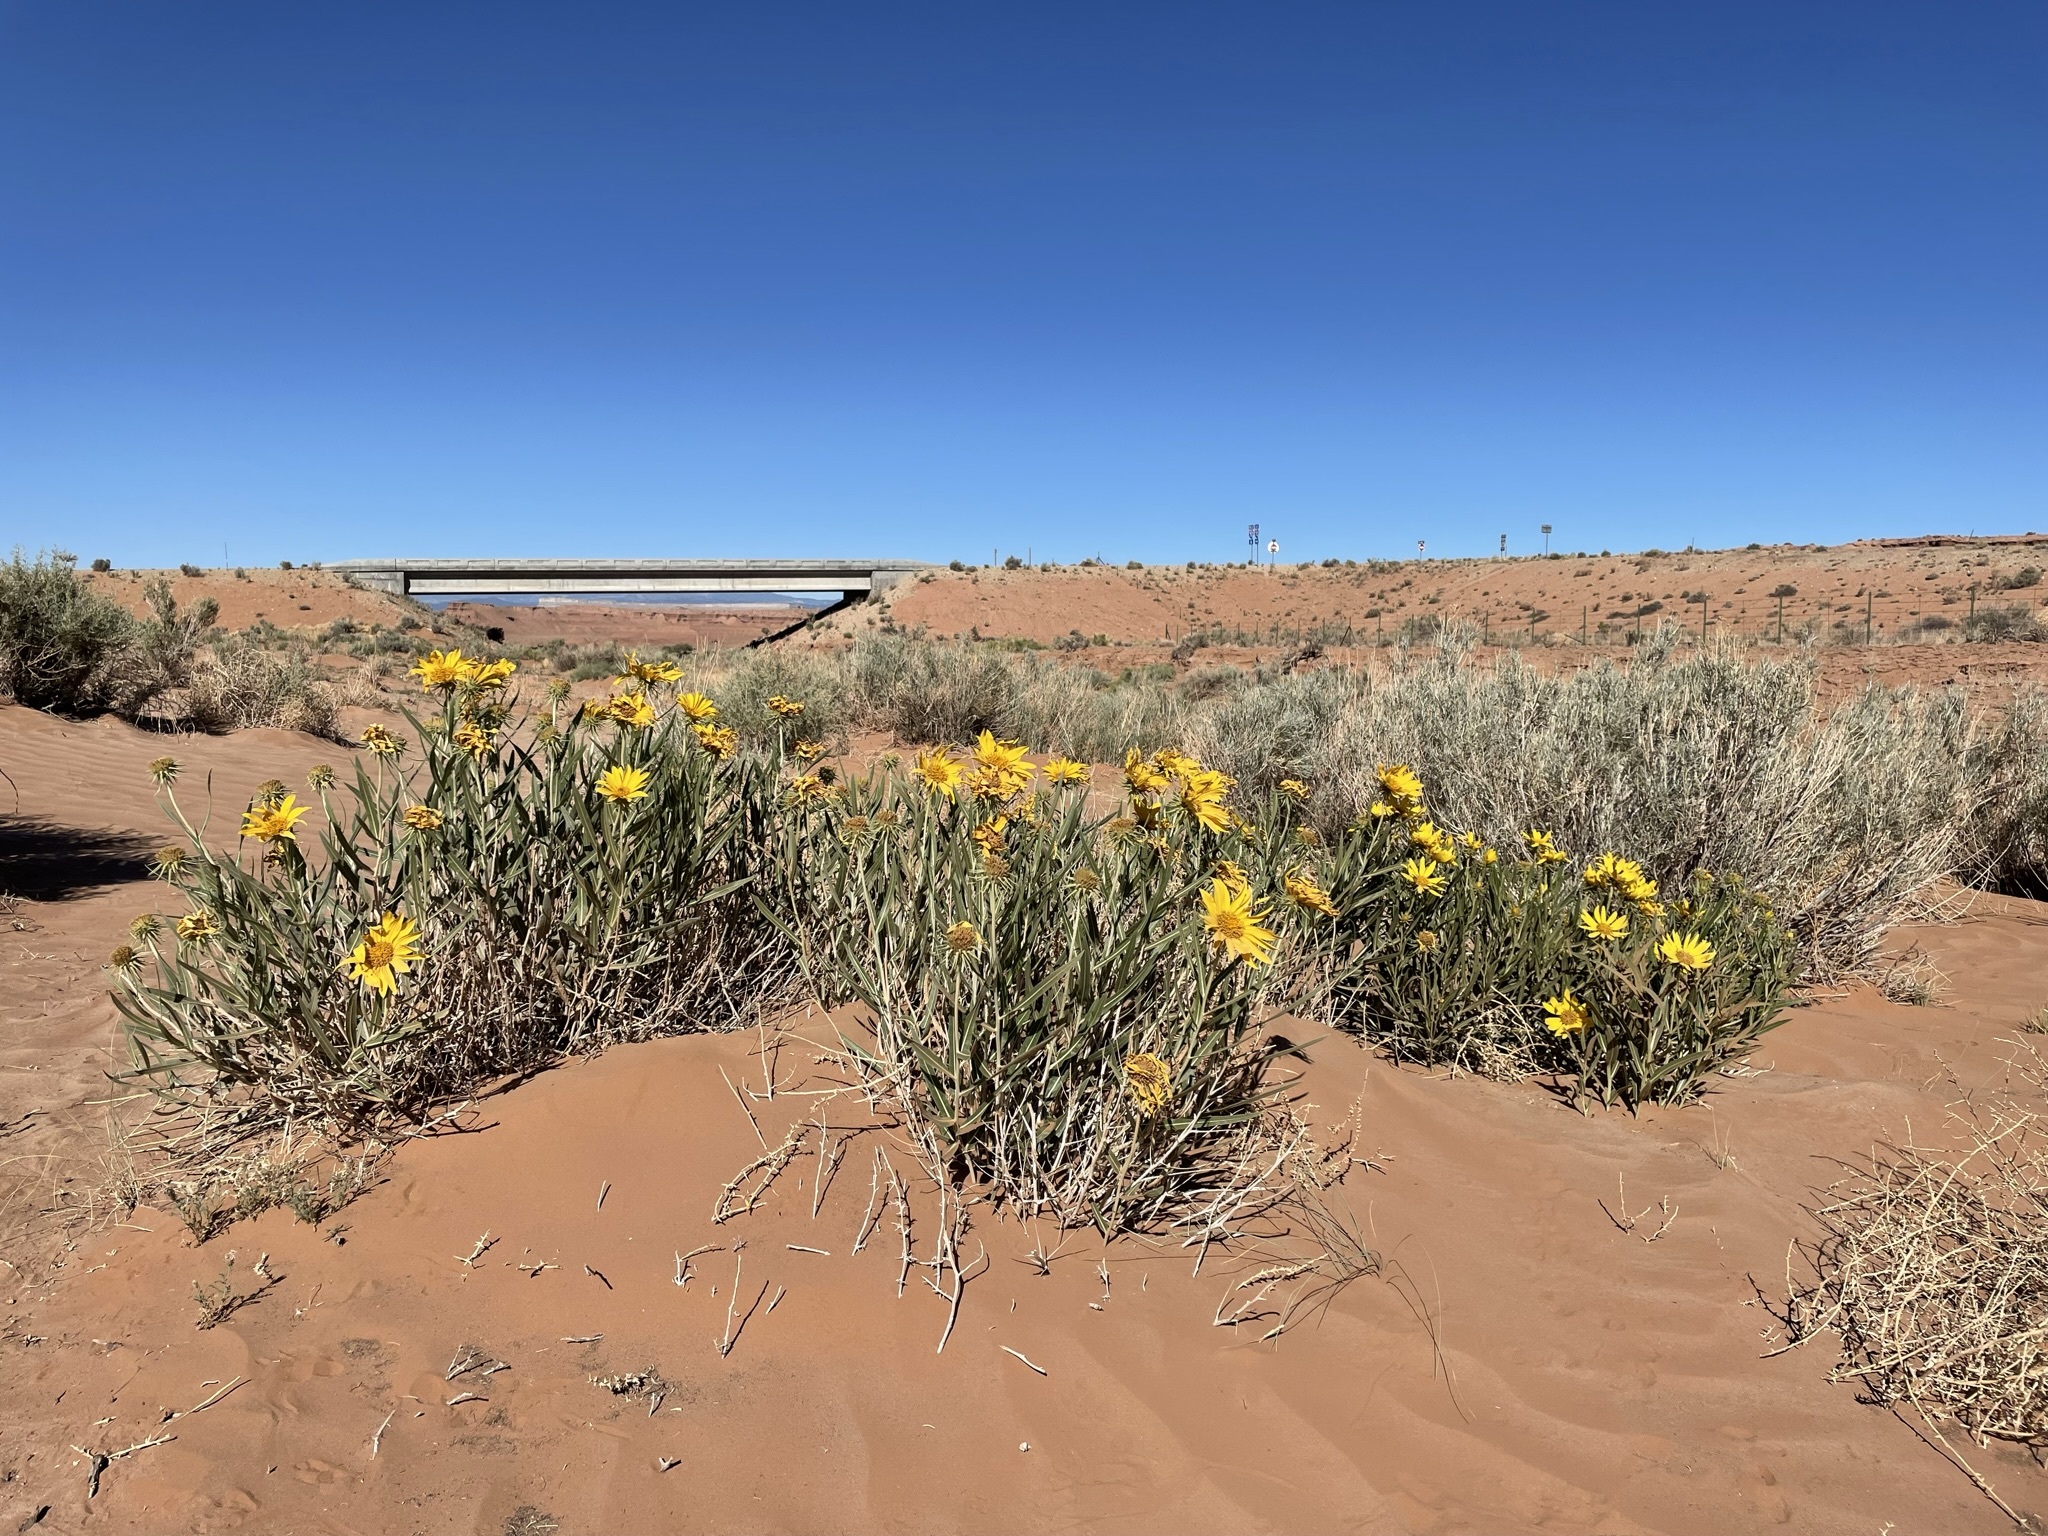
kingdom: Plantae
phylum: Tracheophyta
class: Magnoliopsida
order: Asterales
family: Asteraceae
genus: Scabrethia
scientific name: Scabrethia scabra
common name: Rough mules's-ears
